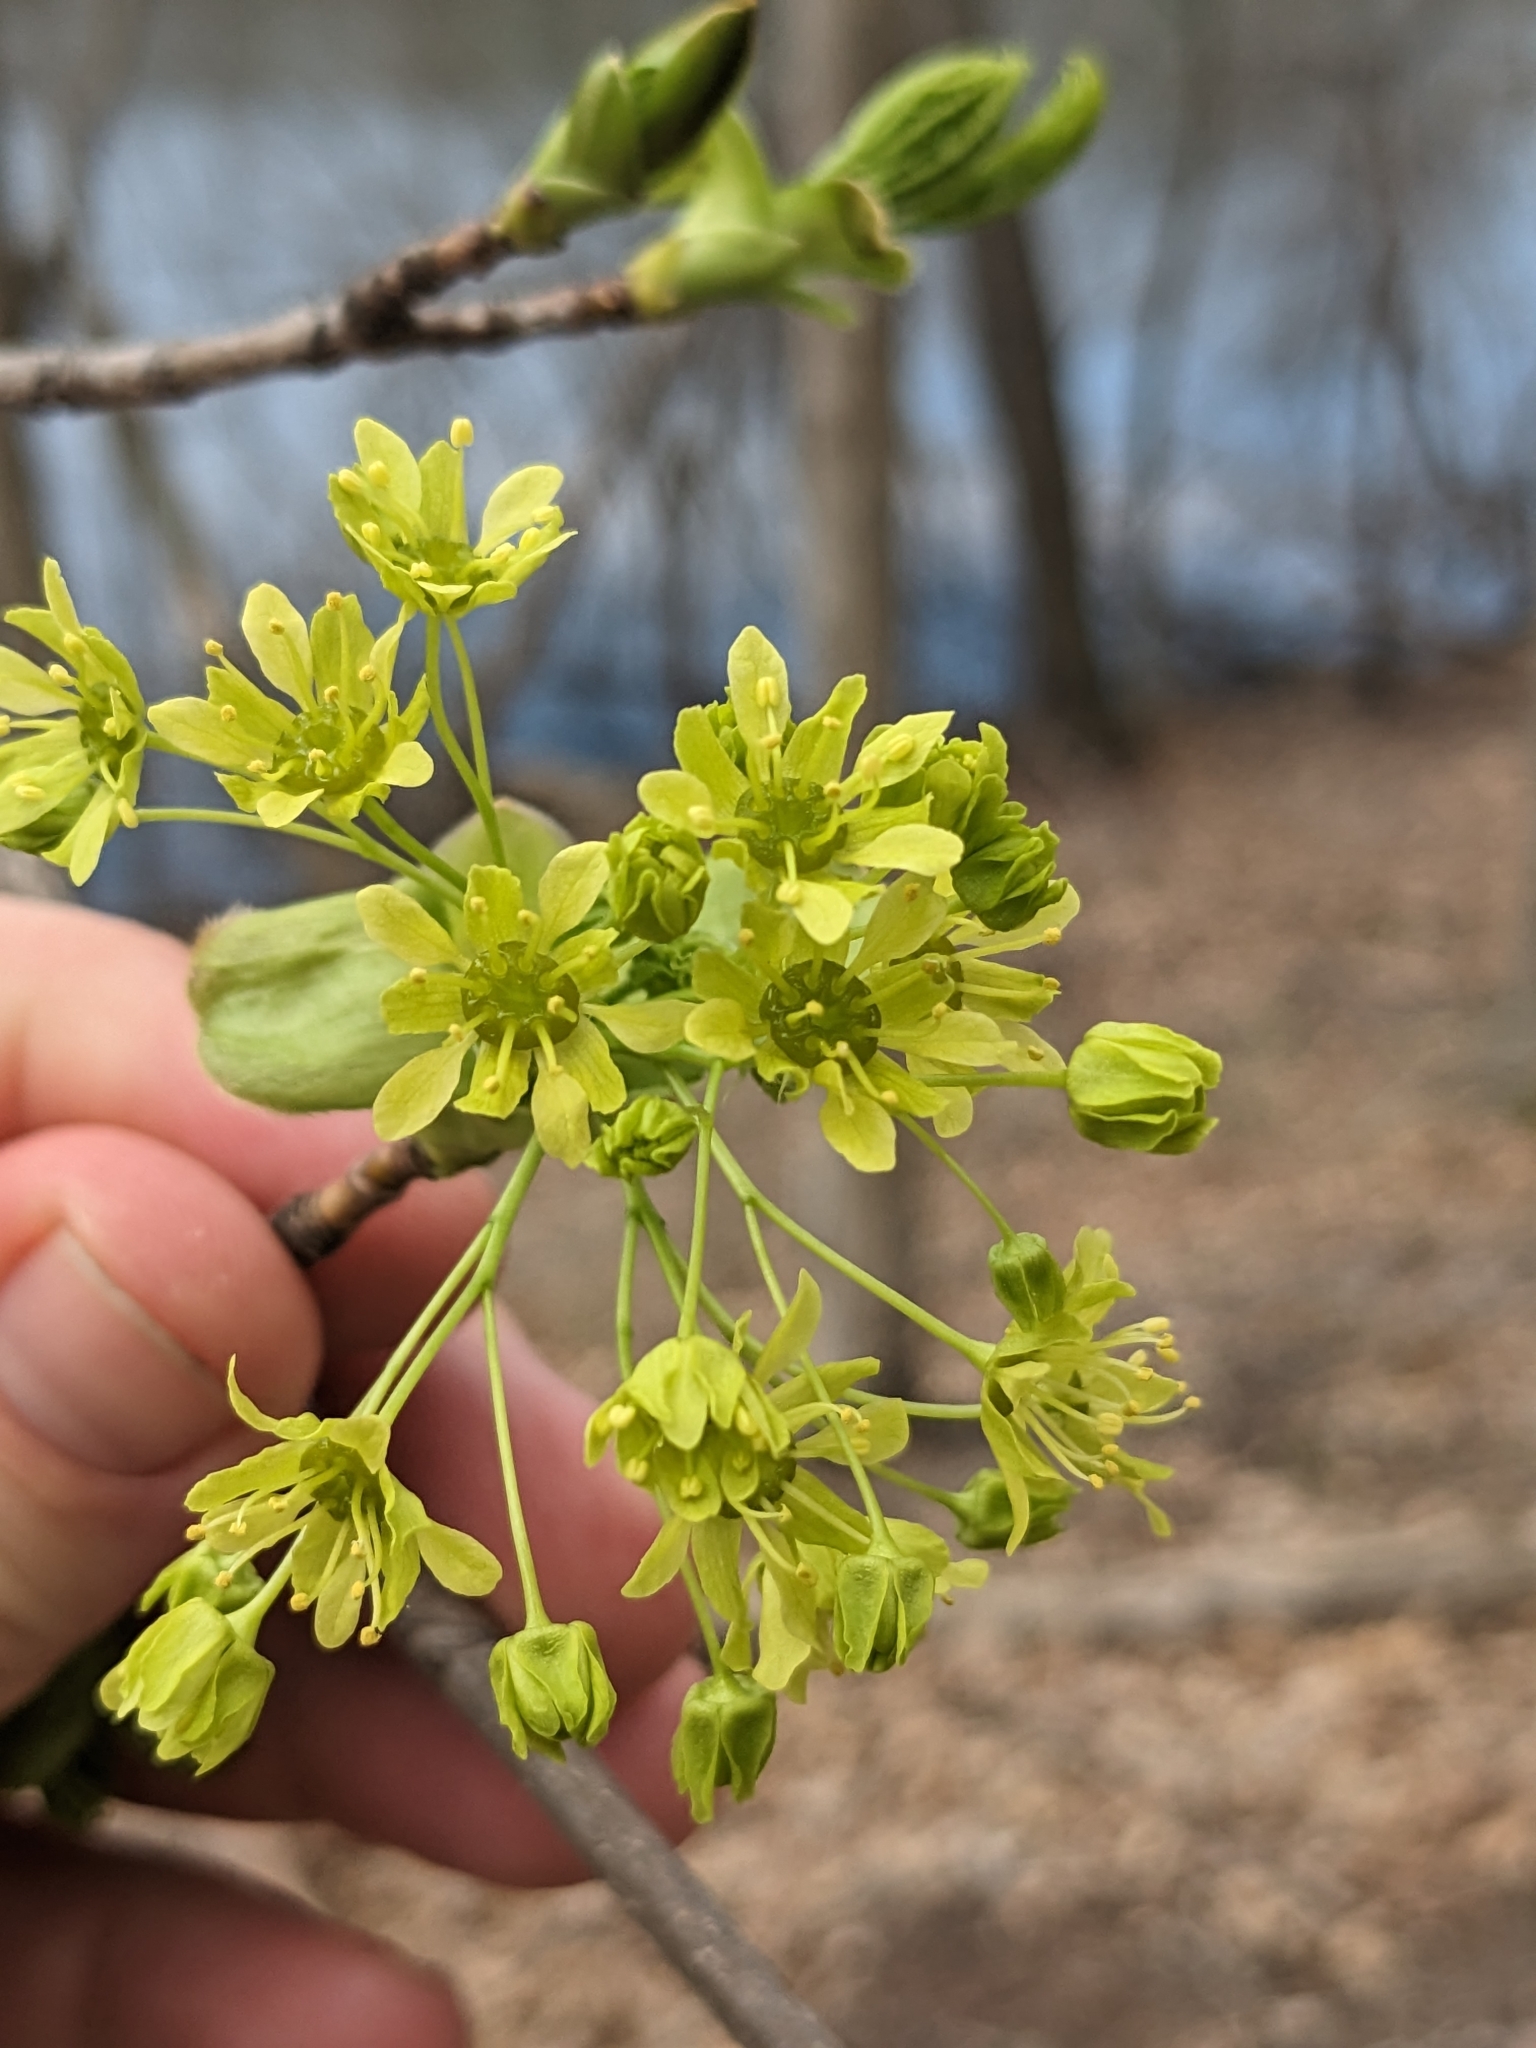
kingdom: Plantae
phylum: Tracheophyta
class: Magnoliopsida
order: Sapindales
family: Sapindaceae
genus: Acer
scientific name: Acer platanoides
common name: Norway maple
